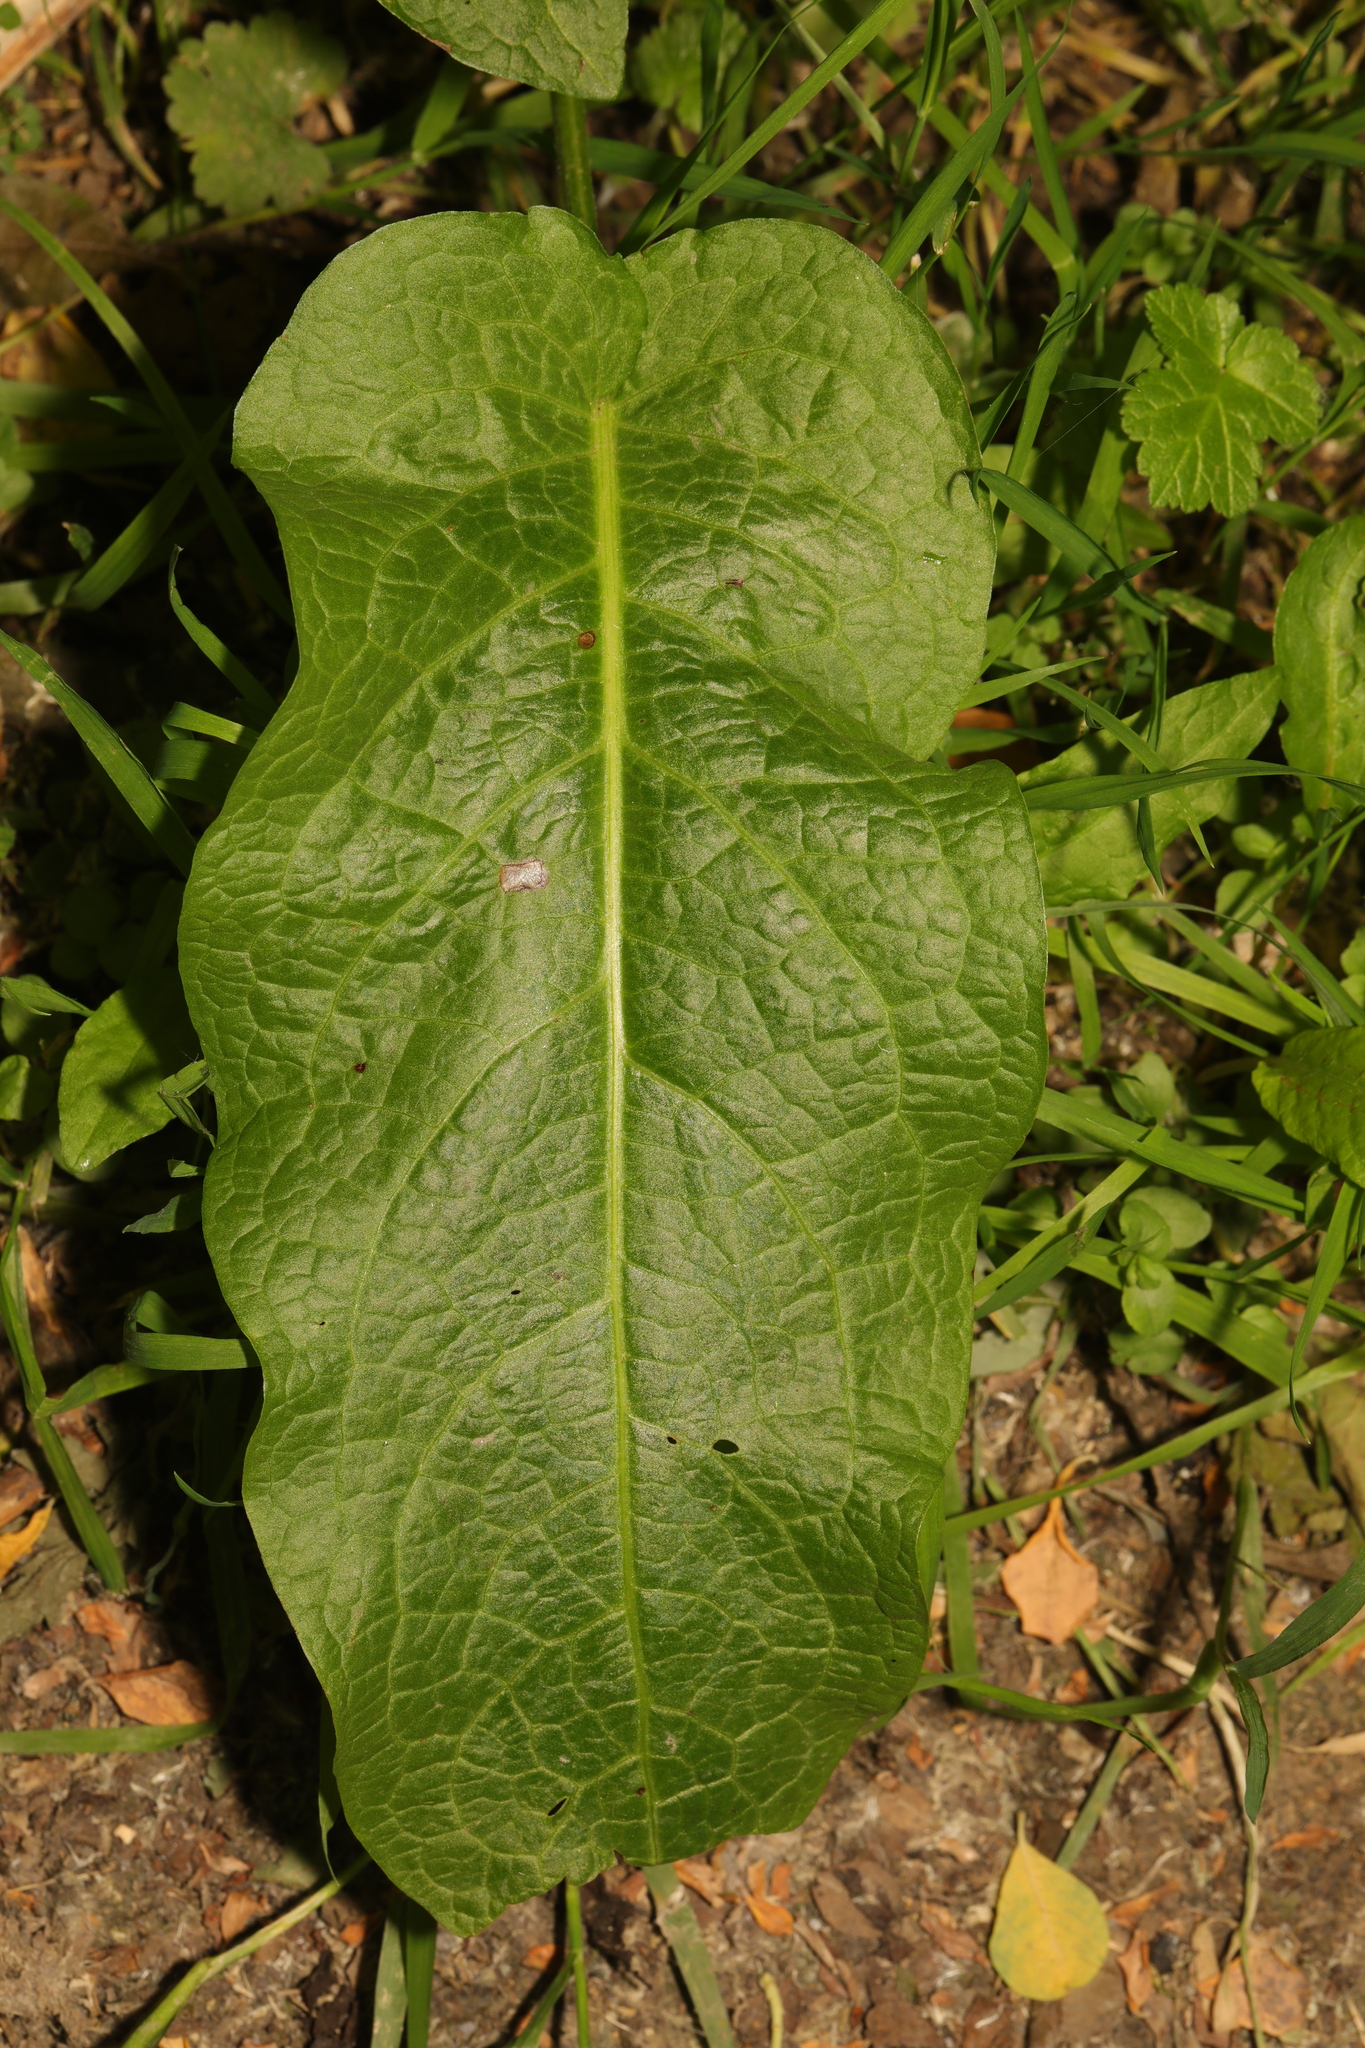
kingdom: Plantae
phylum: Tracheophyta
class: Magnoliopsida
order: Caryophyllales
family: Polygonaceae
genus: Rumex
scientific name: Rumex obtusifolius
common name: Bitter dock
